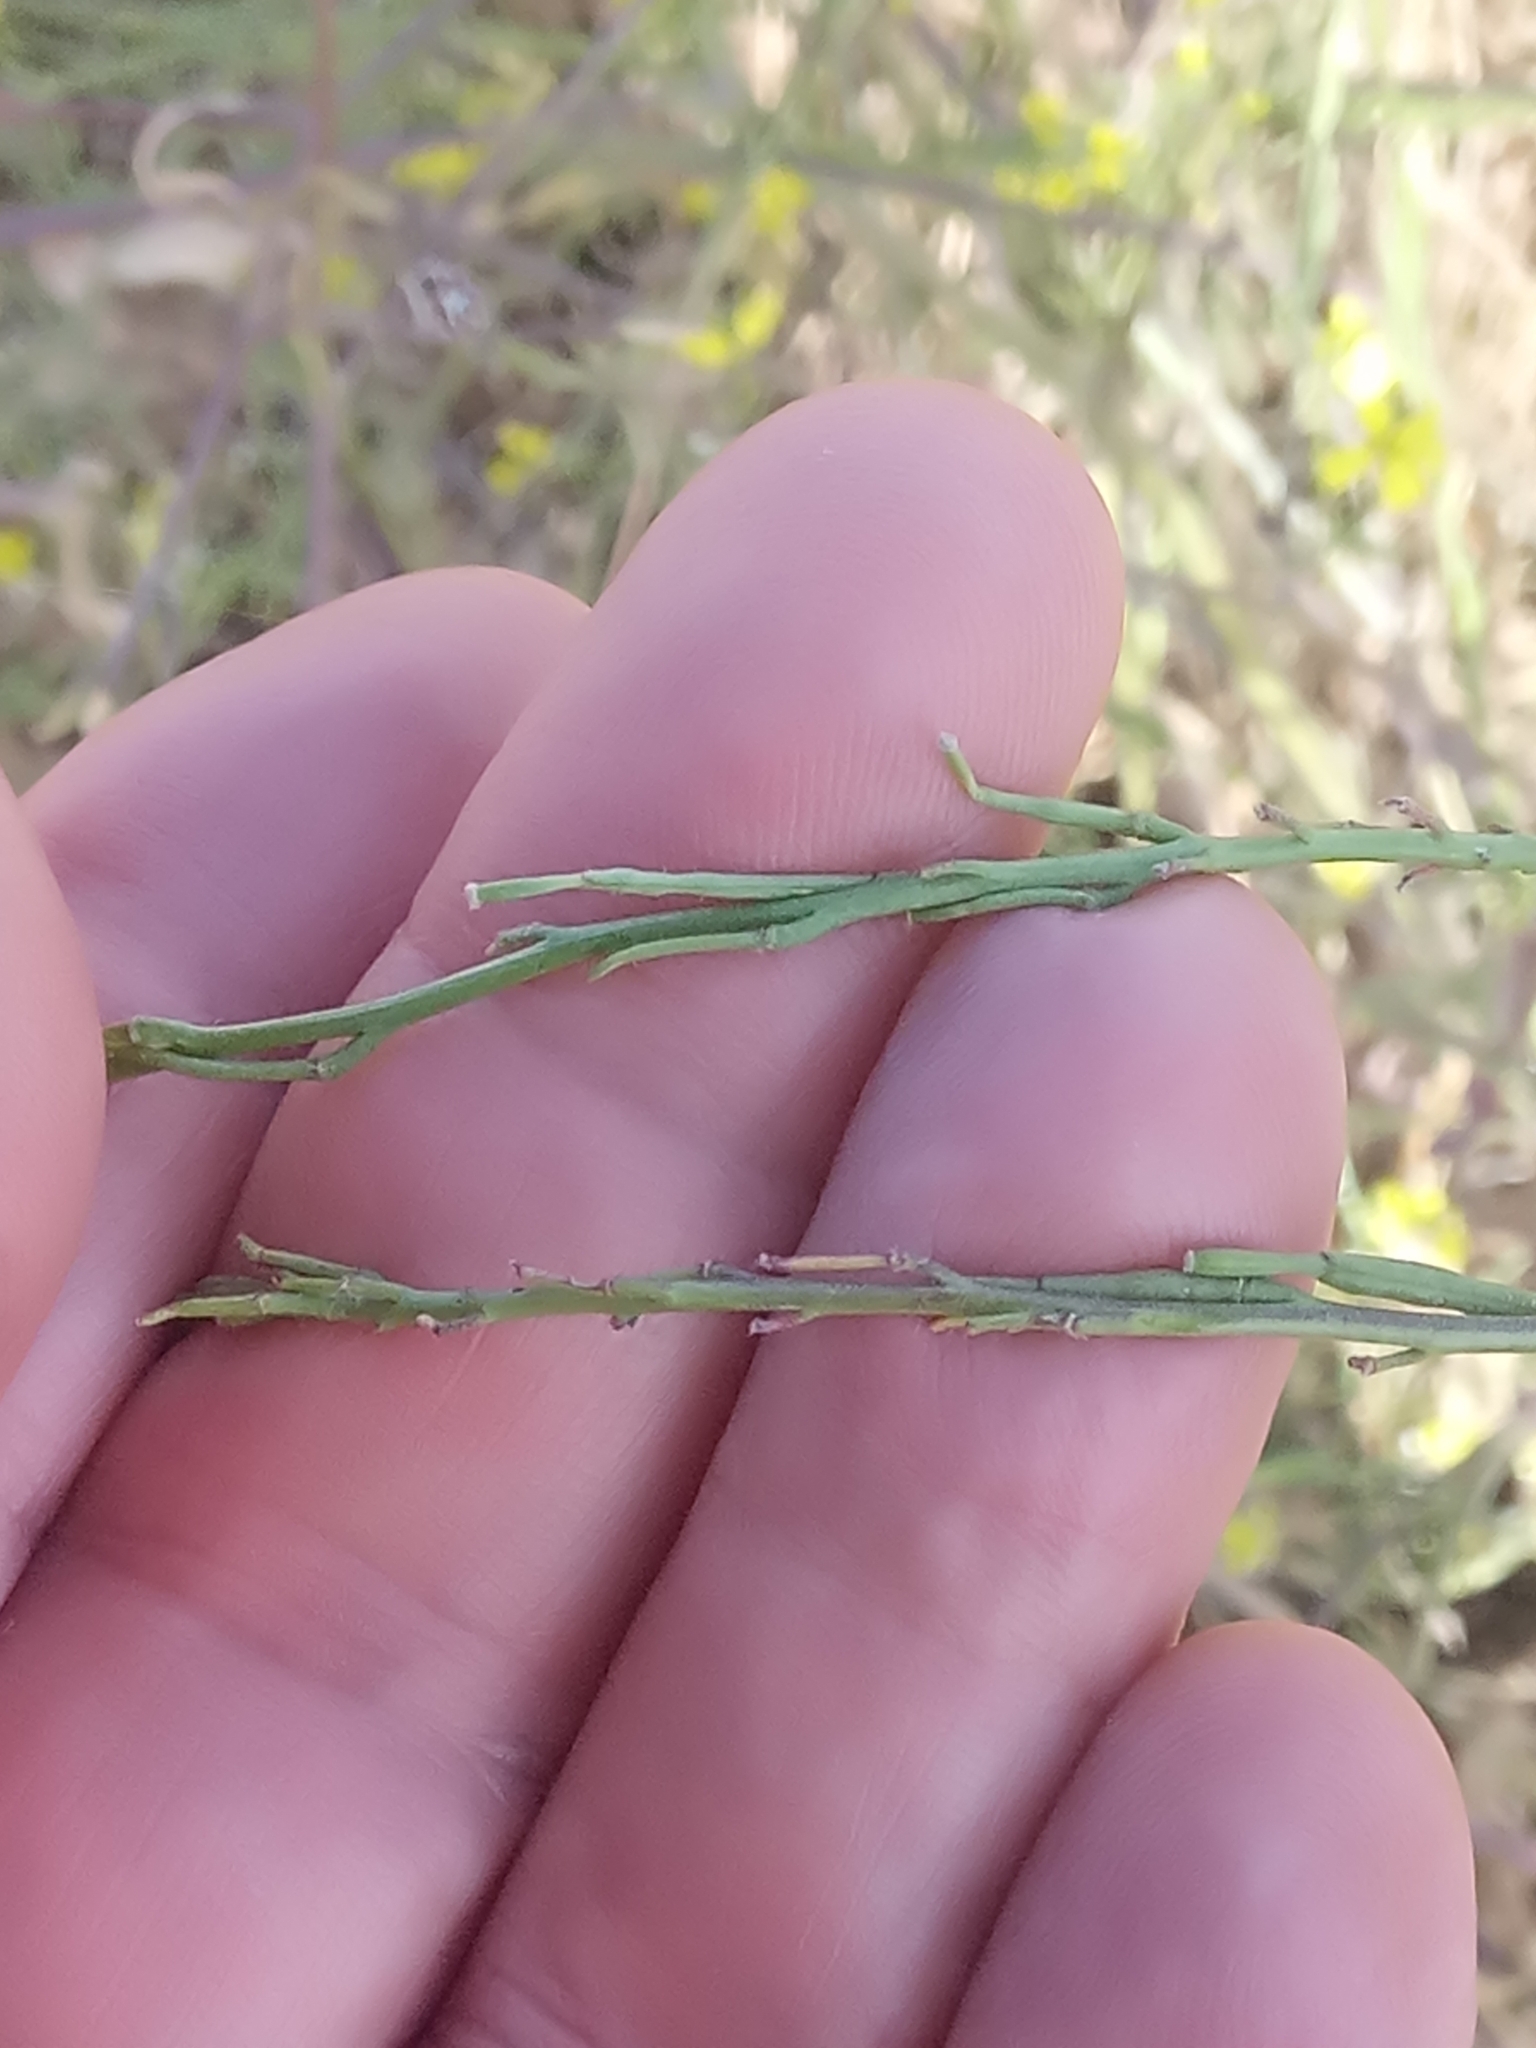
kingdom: Plantae
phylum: Tracheophyta
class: Magnoliopsida
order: Brassicales
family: Brassicaceae
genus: Hirschfeldia
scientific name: Hirschfeldia incana
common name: Hoary mustard
